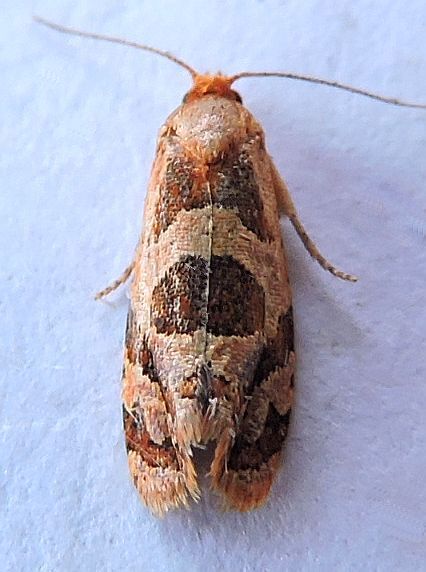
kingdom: Animalia
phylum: Arthropoda
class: Insecta
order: Lepidoptera
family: Tortricidae
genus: Hyptiharpa
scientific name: Hyptiharpa baboquavariana
